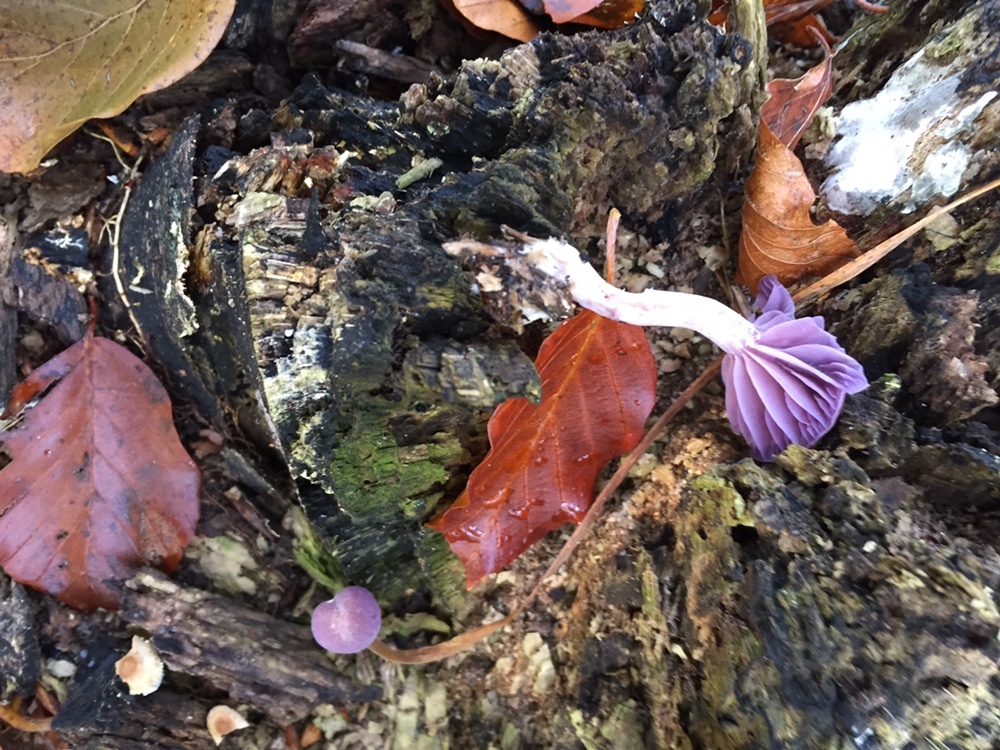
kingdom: Fungi
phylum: Basidiomycota
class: Agaricomycetes
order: Agaricales
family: Hydnangiaceae
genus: Laccaria
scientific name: Laccaria amethystina
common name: Amethyst deceiver
